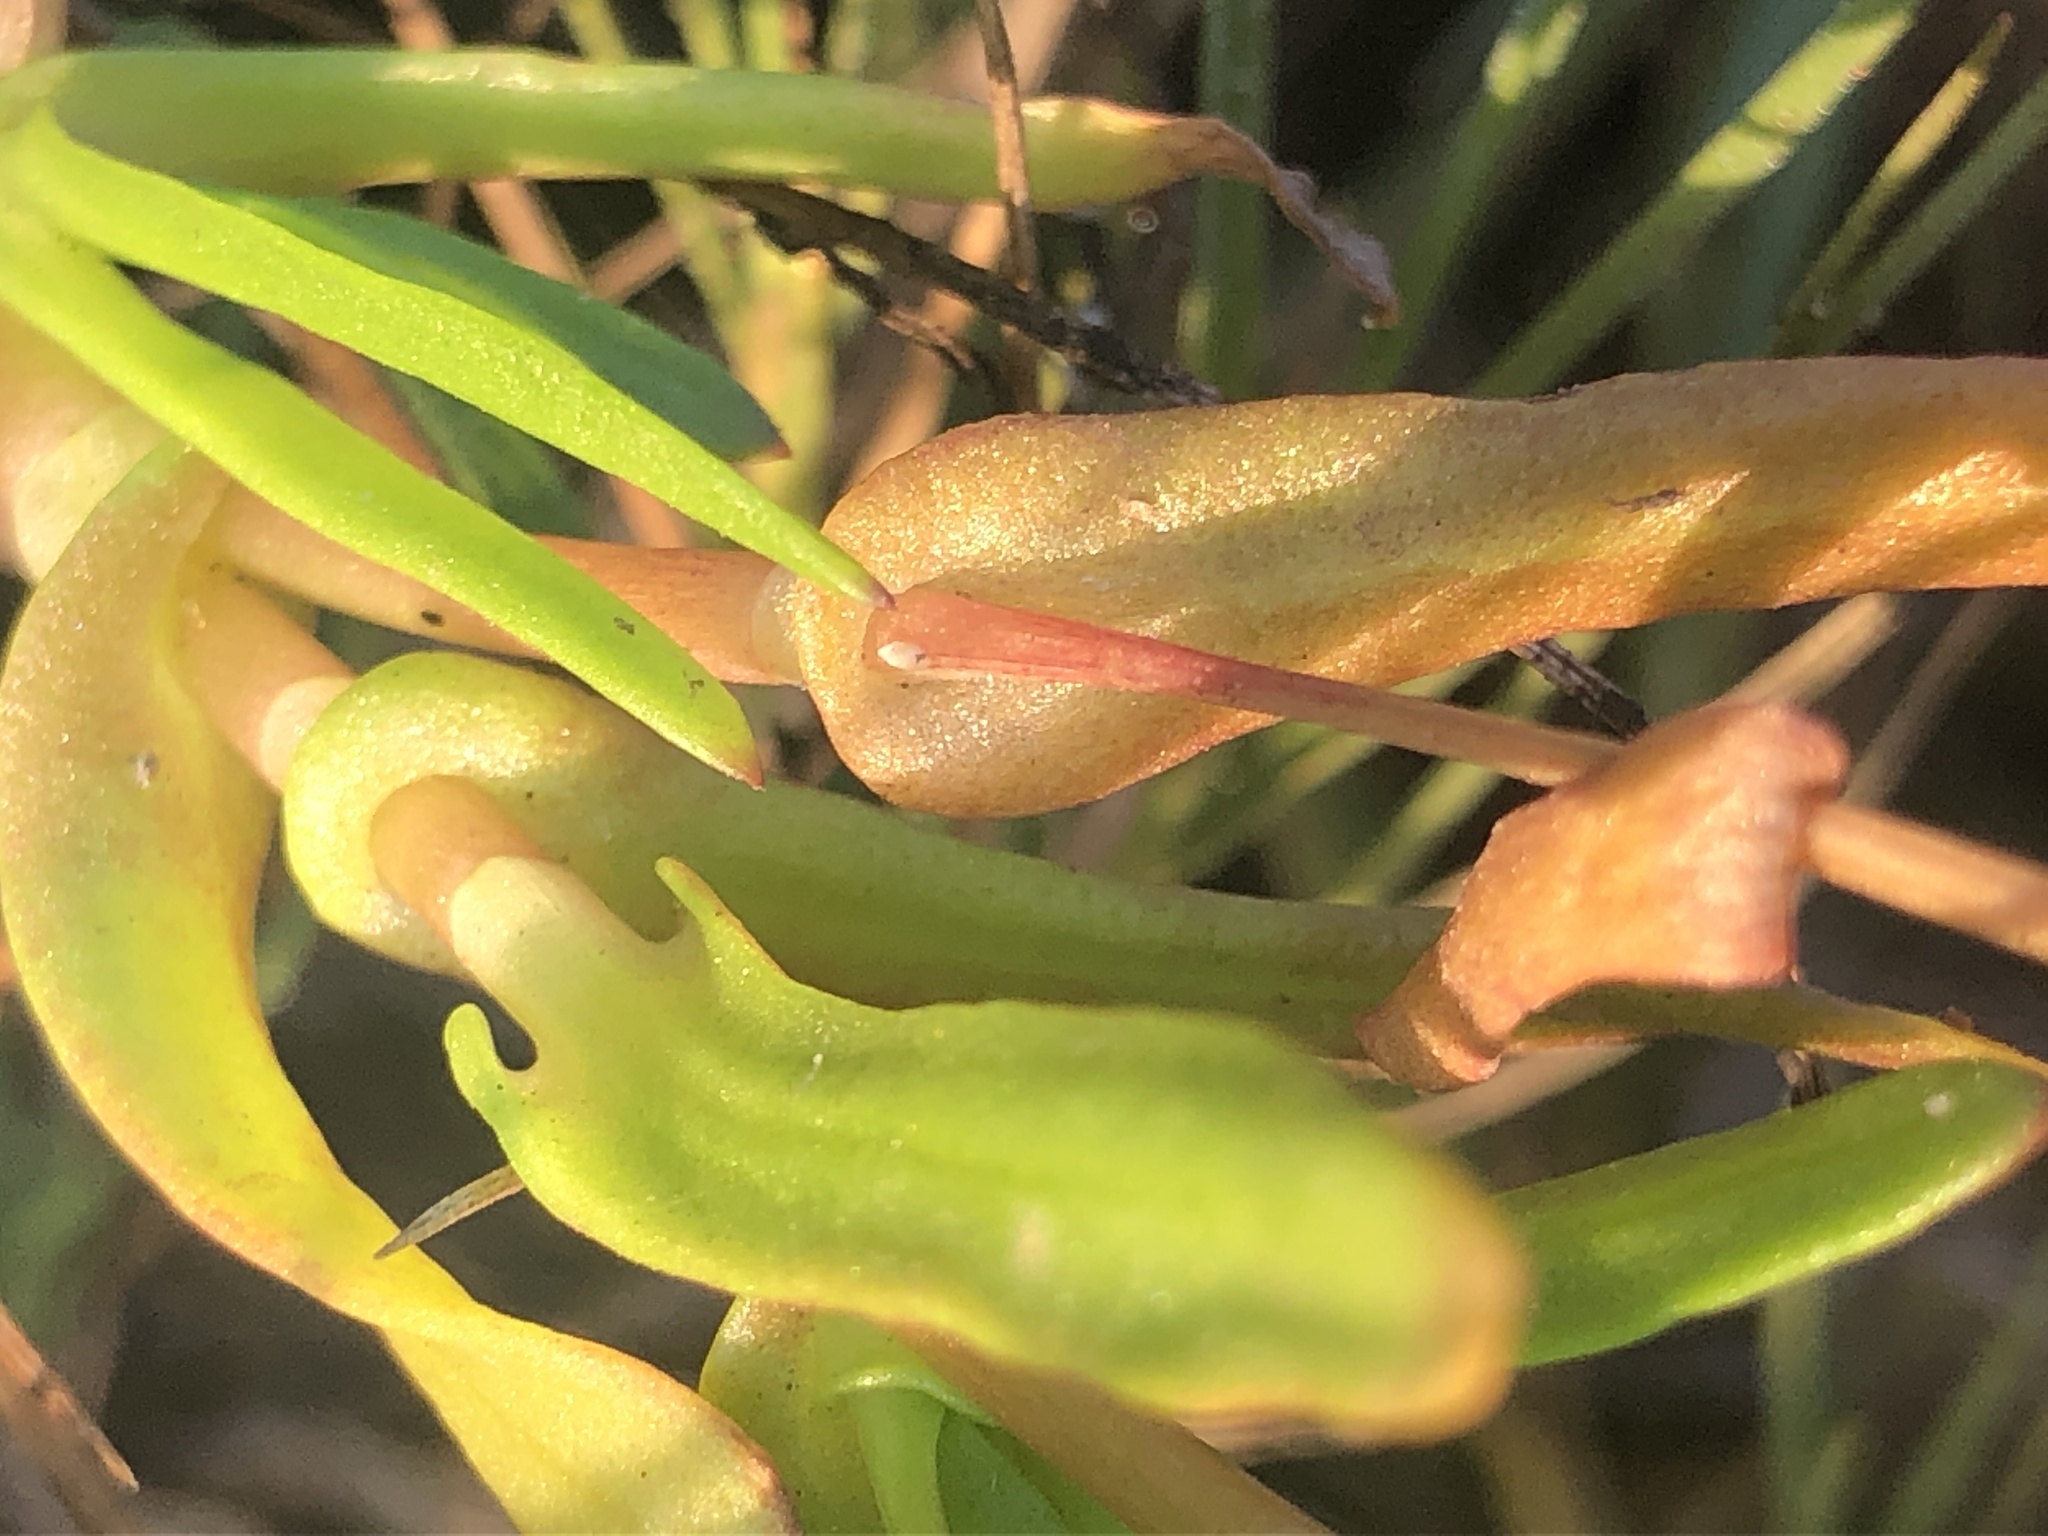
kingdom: Plantae
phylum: Tracheophyta
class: Magnoliopsida
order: Asterales
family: Asteraceae
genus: Cotula
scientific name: Cotula coronopifolia
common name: Buttonweed
